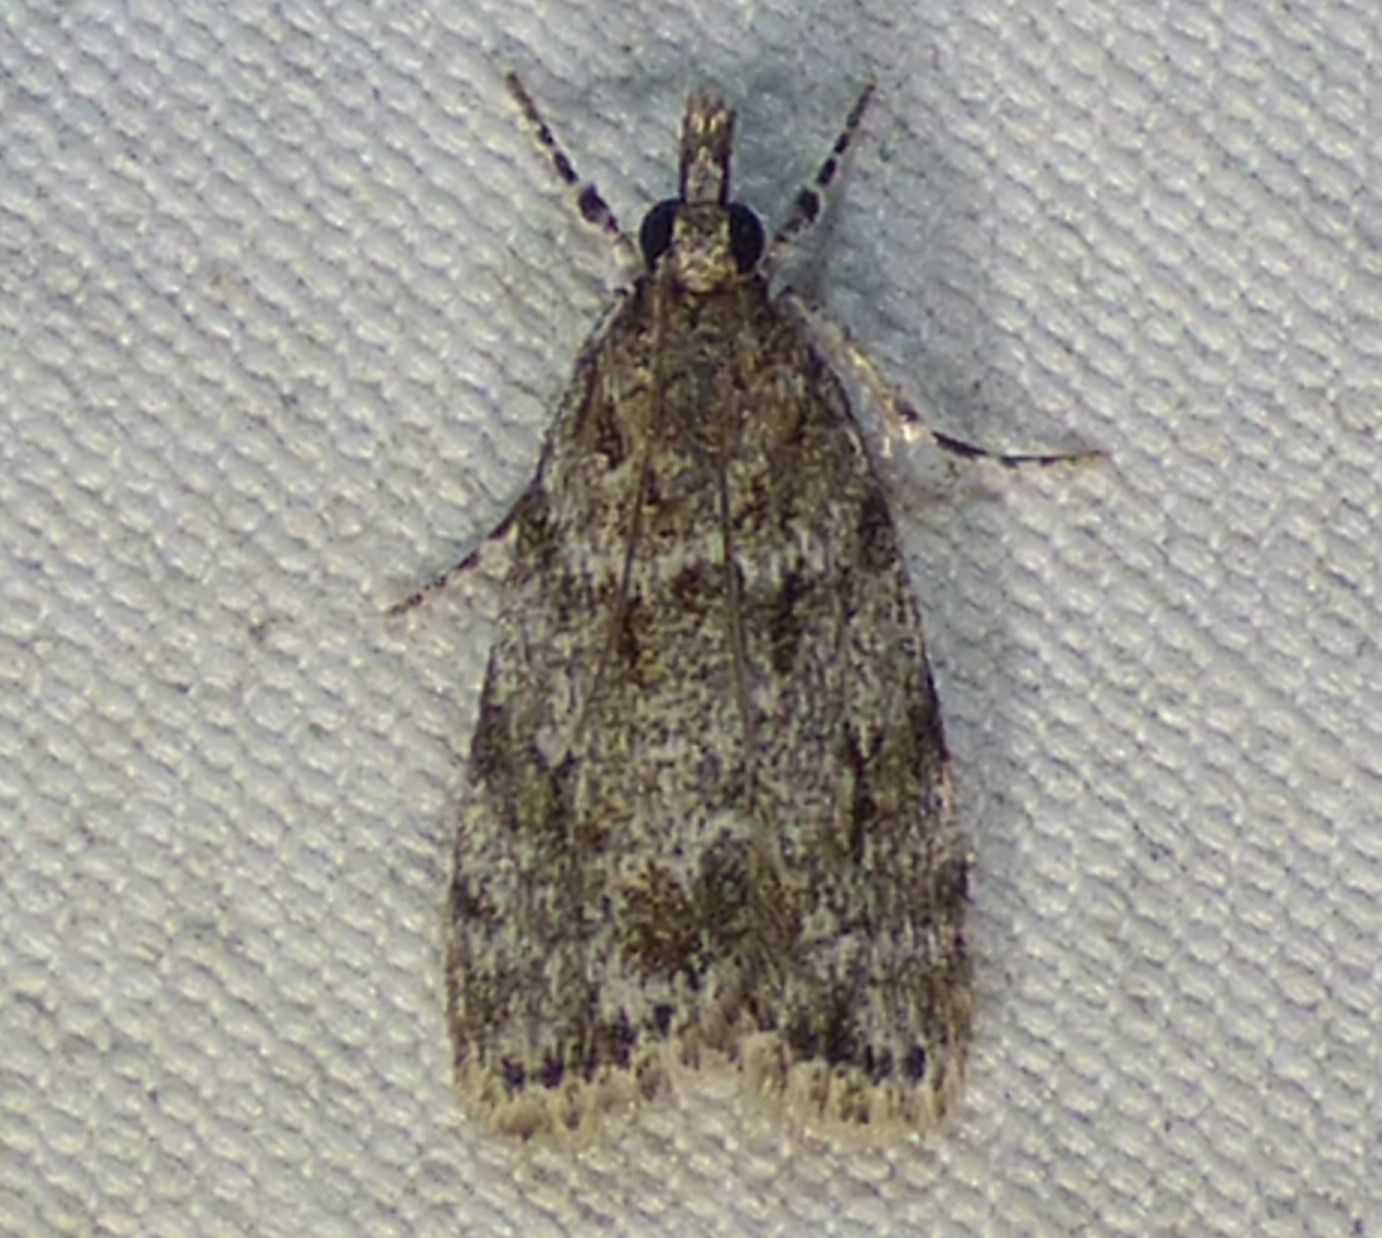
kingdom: Animalia
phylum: Arthropoda
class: Insecta
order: Lepidoptera
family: Crambidae
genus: Eudonia
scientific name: Eudonia heterosalis
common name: Mcdunnough's eudonia
